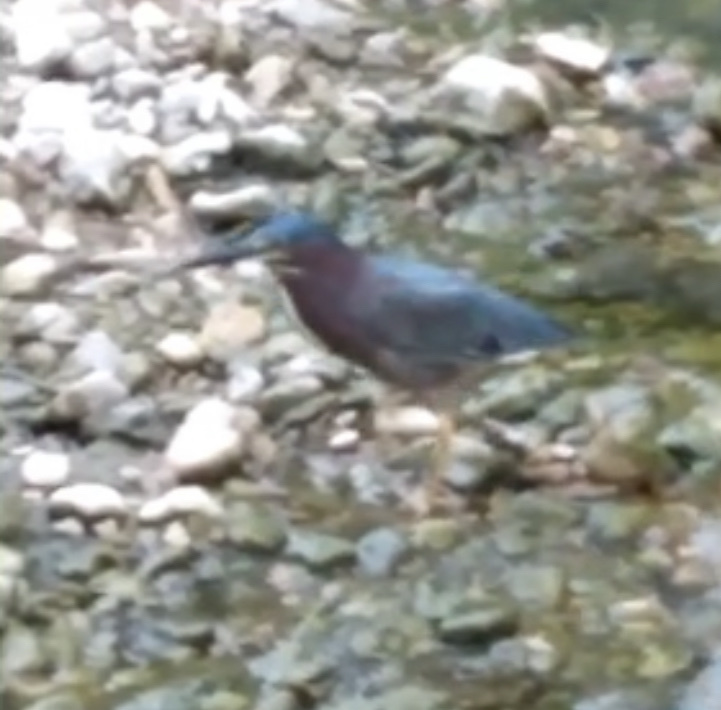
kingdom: Animalia
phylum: Chordata
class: Aves
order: Pelecaniformes
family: Ardeidae
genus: Butorides
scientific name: Butorides virescens
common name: Green heron
